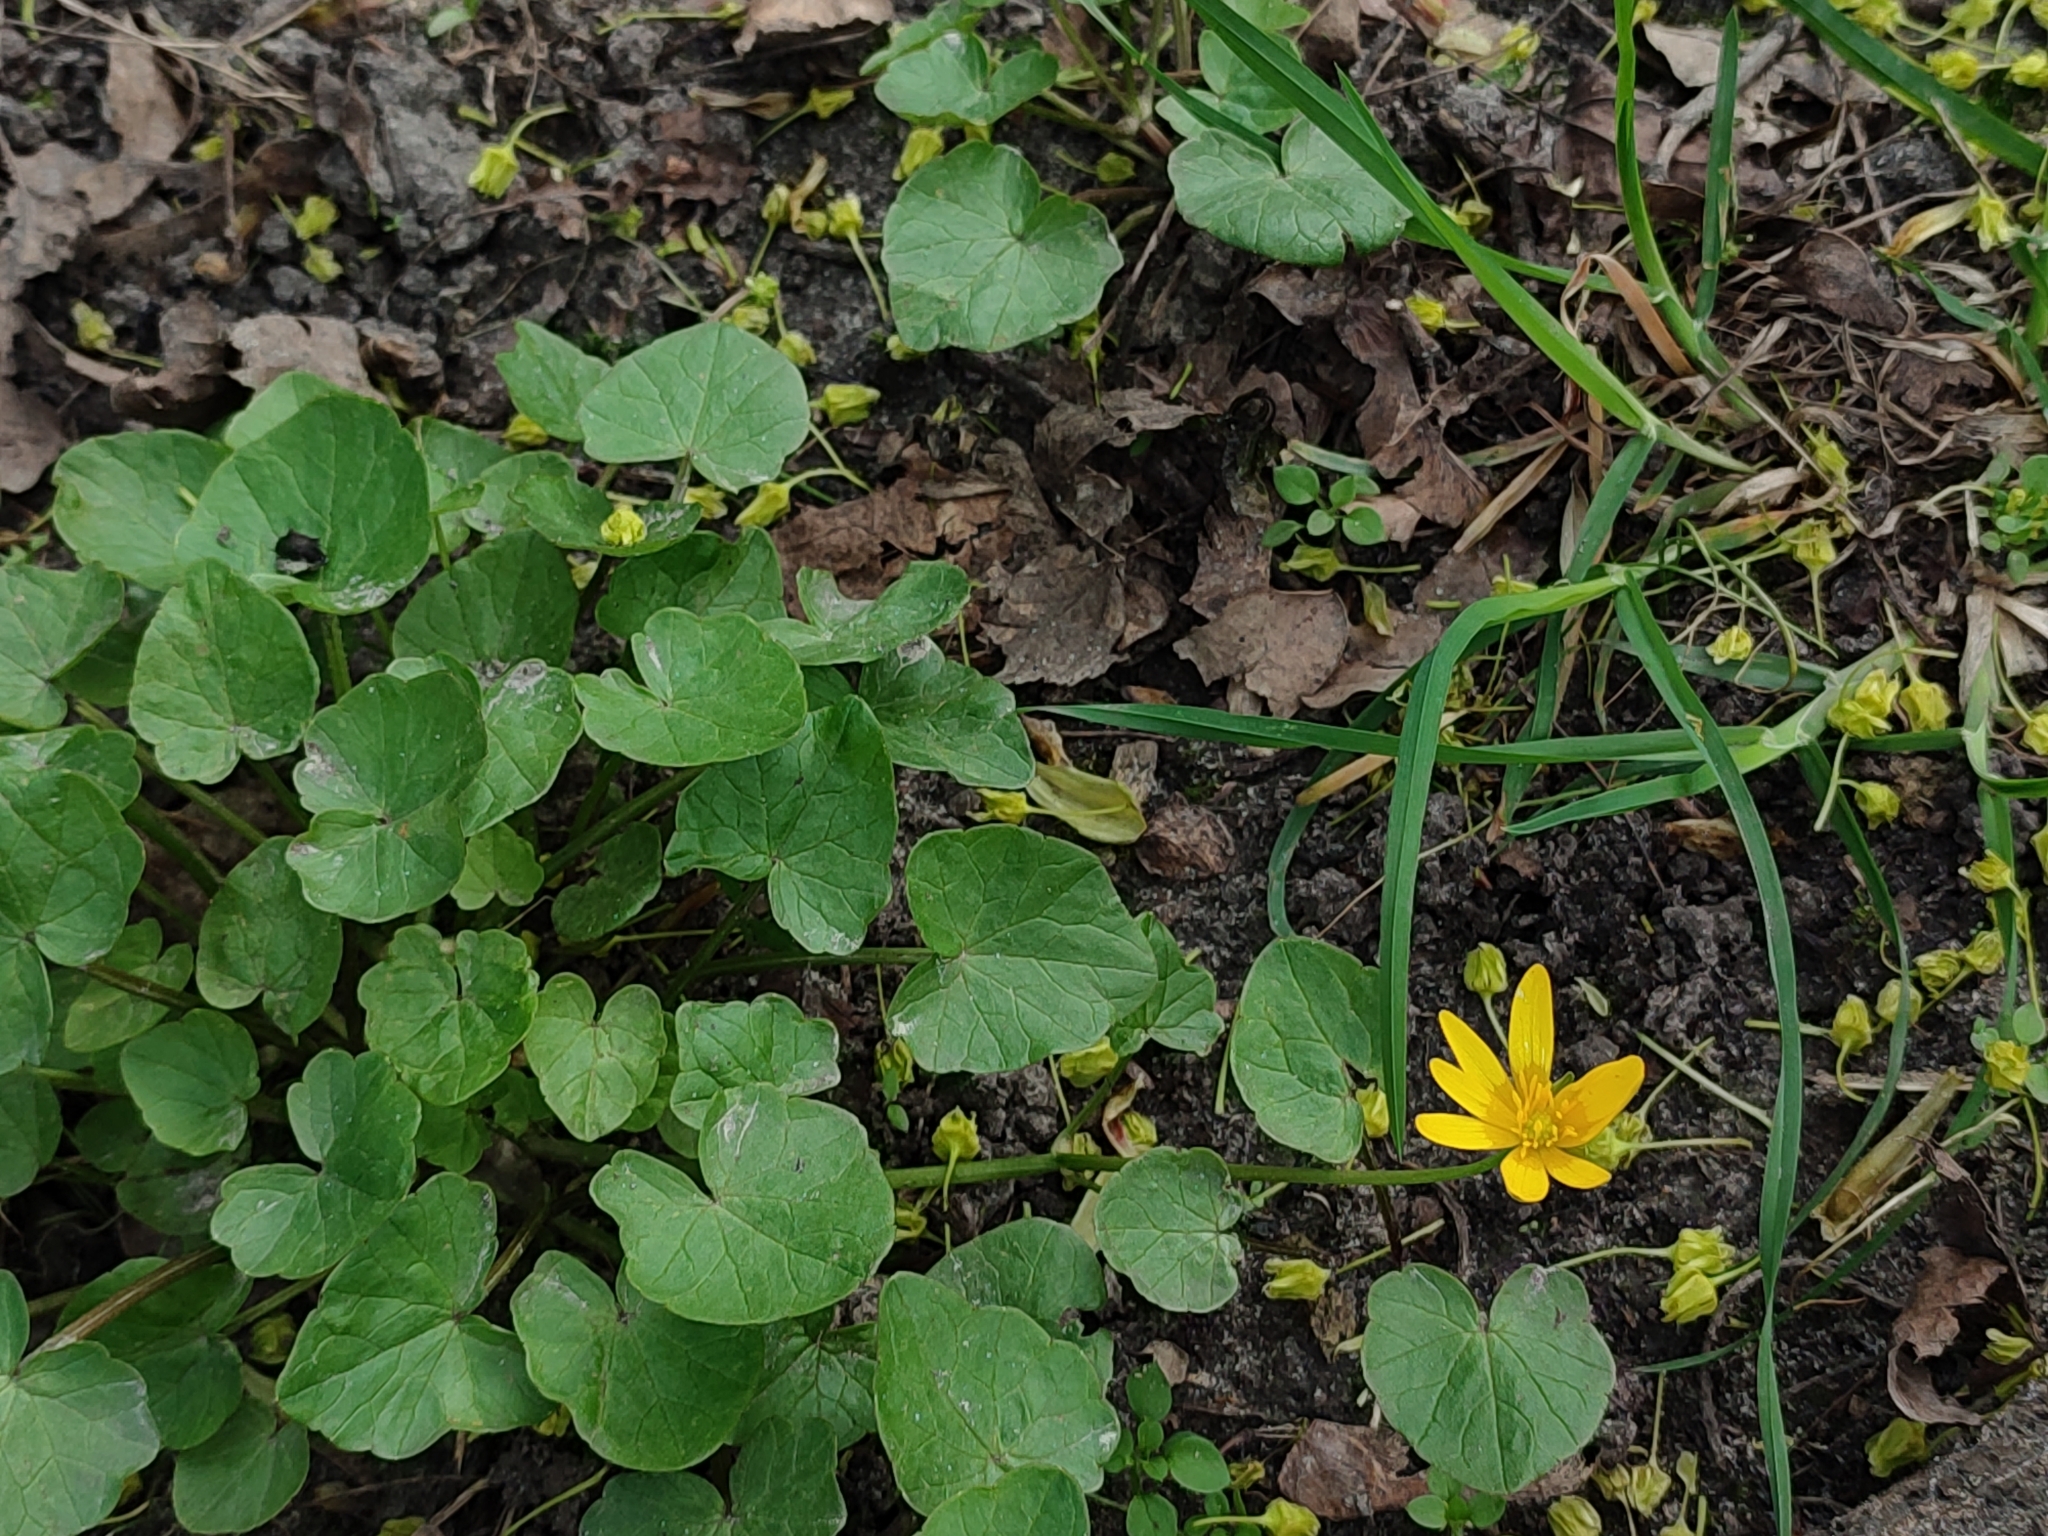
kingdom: Plantae
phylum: Tracheophyta
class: Magnoliopsida
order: Ranunculales
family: Ranunculaceae
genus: Ficaria
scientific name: Ficaria verna
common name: Lesser celandine
